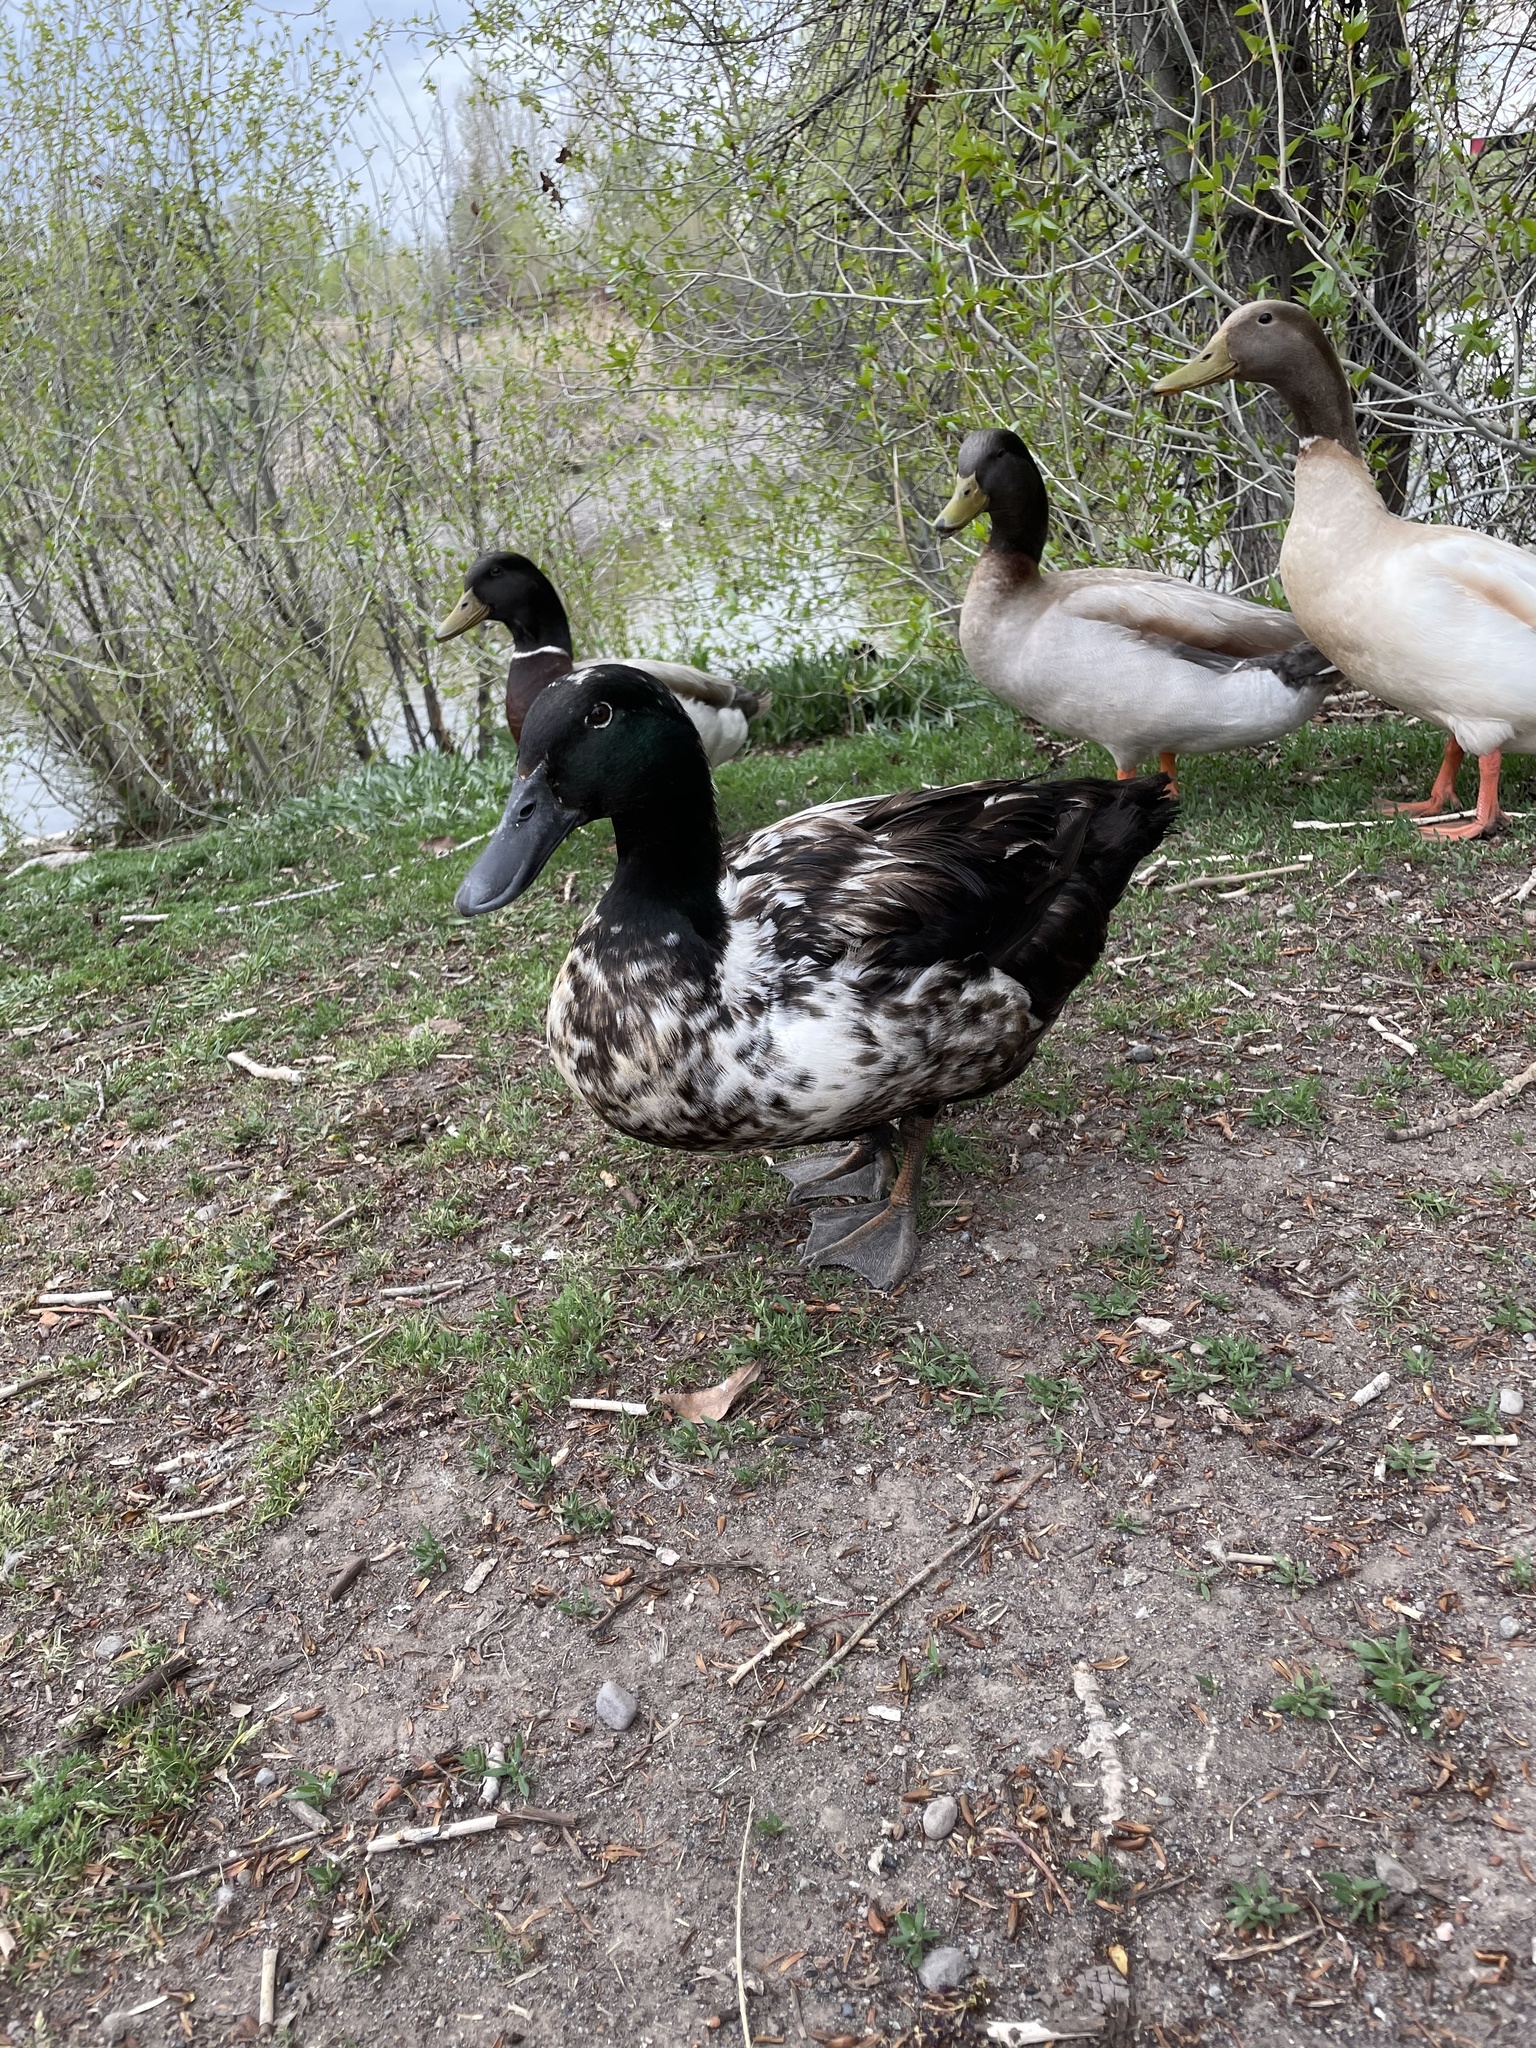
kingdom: Animalia
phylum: Chordata
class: Aves
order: Anseriformes
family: Anatidae
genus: Anas
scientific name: Anas platyrhynchos
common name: Mallard
